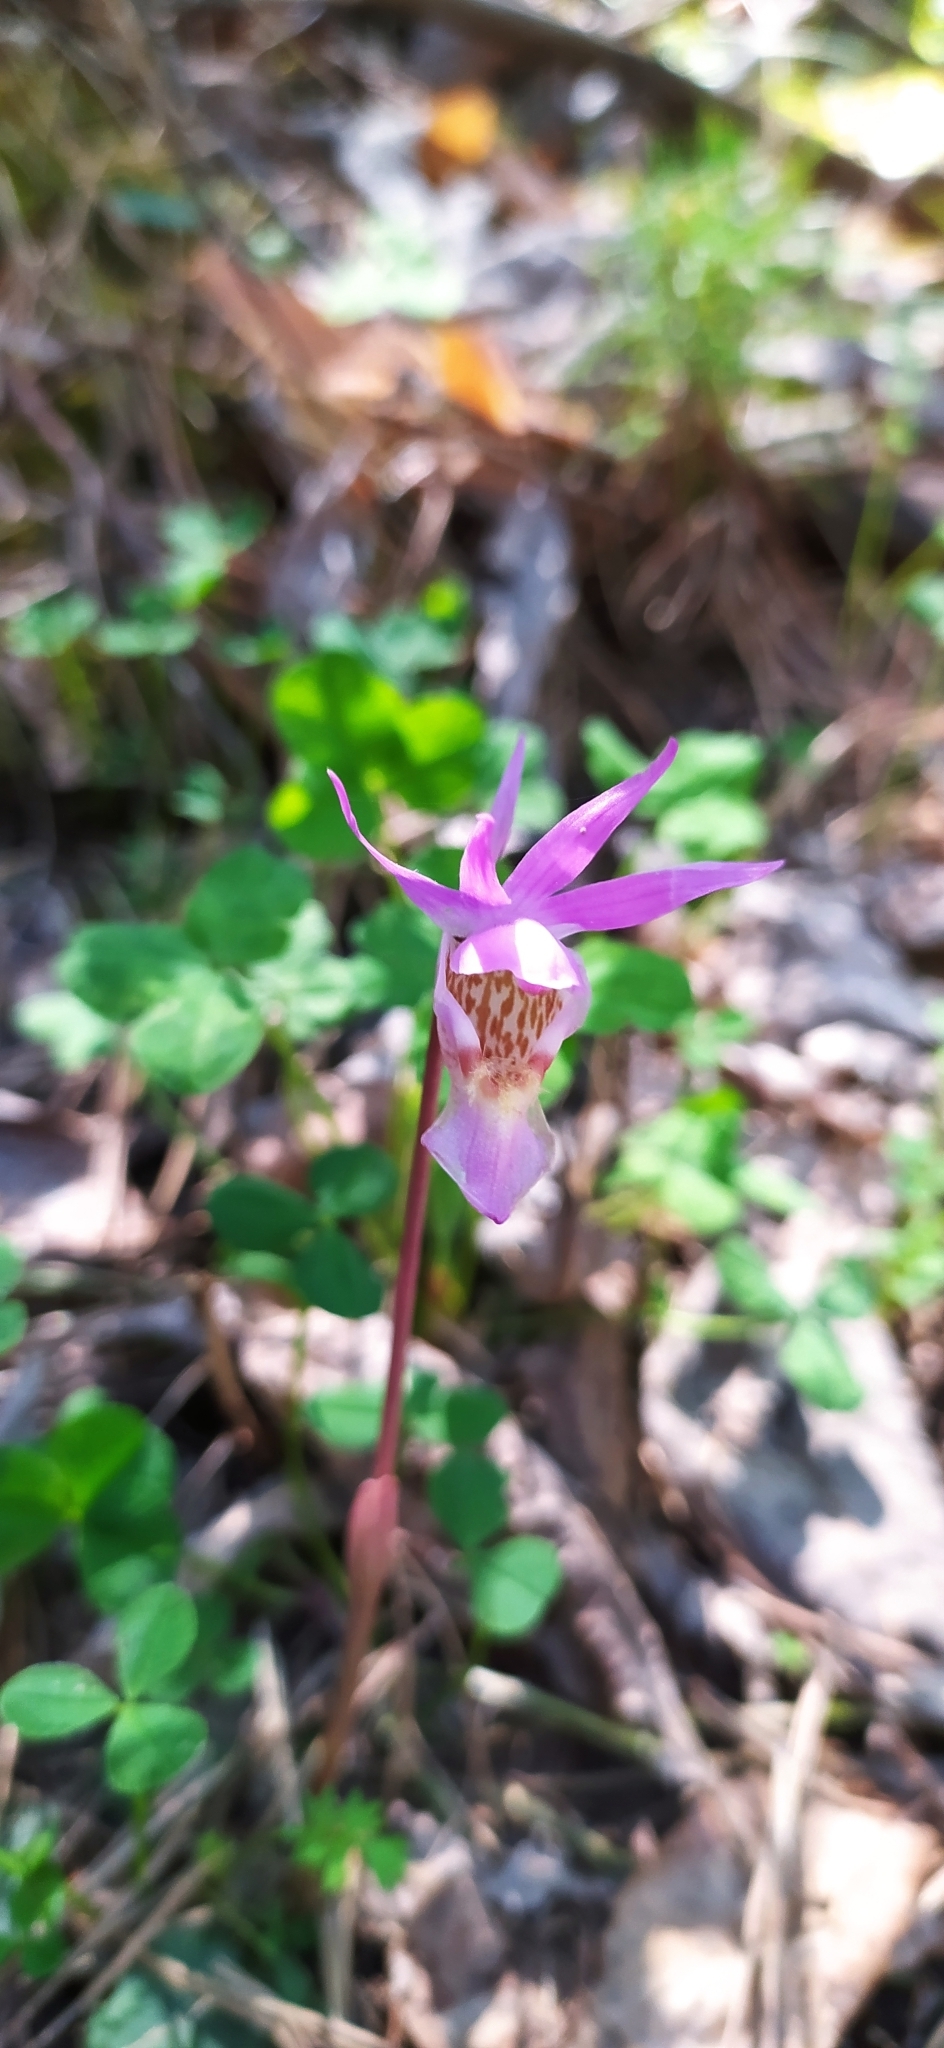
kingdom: Plantae
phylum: Tracheophyta
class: Liliopsida
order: Asparagales
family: Orchidaceae
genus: Calypso
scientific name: Calypso bulbosa
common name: Calypso
